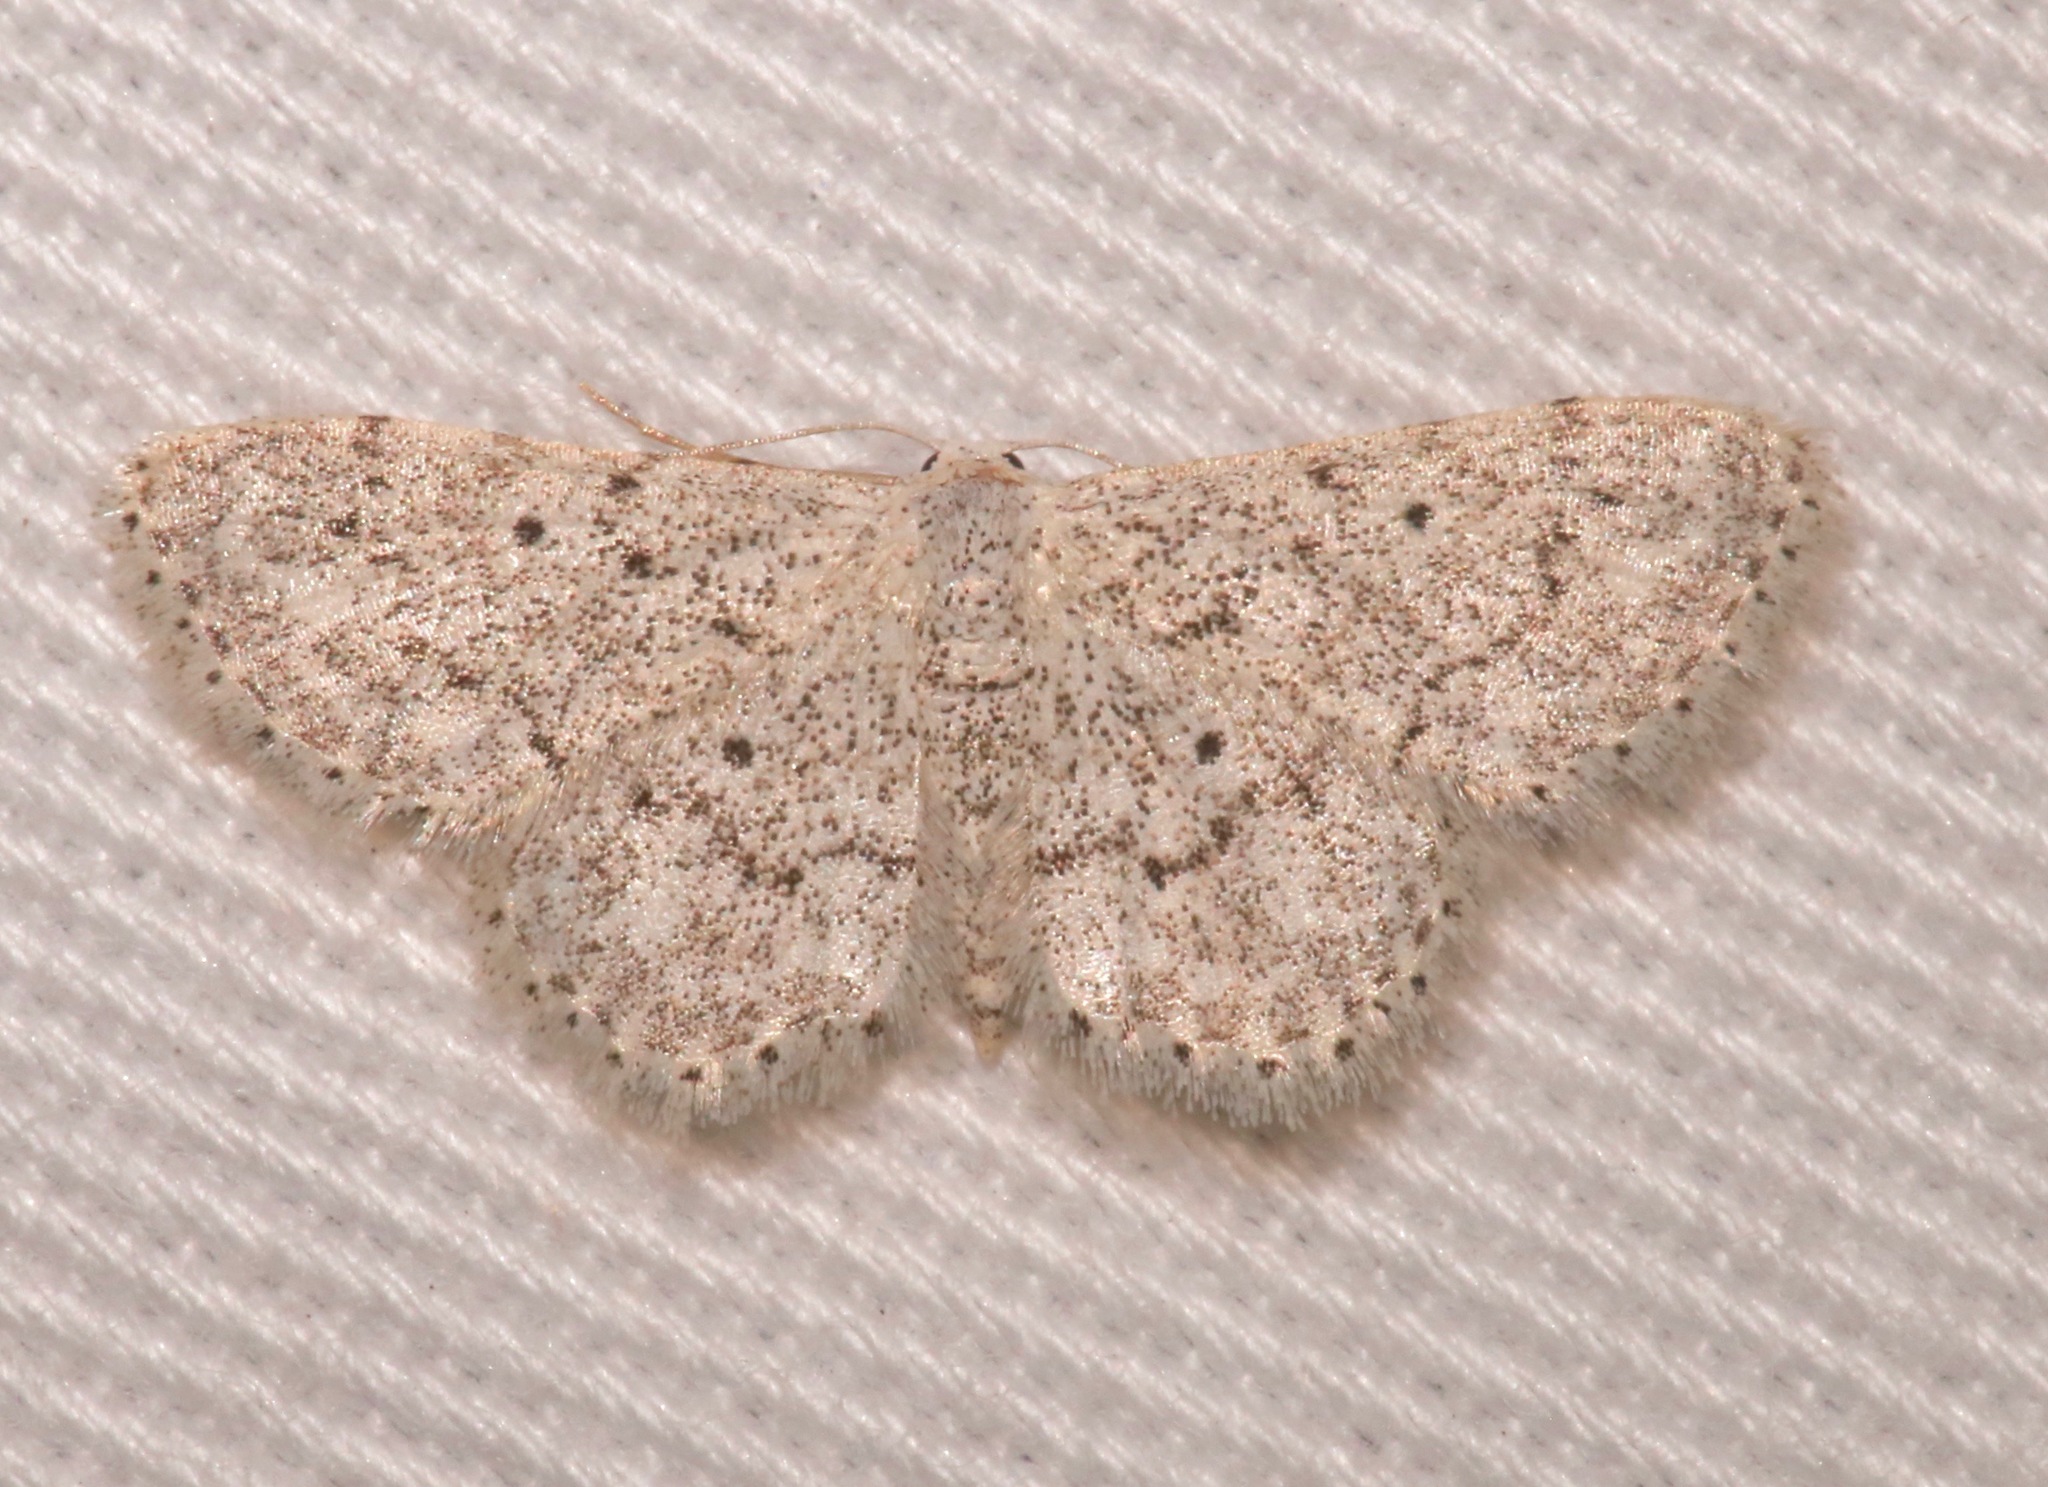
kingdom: Animalia
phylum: Arthropoda
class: Insecta
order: Lepidoptera
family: Geometridae
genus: Idaea
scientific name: Idaea ostentaria
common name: Showy wave moth
